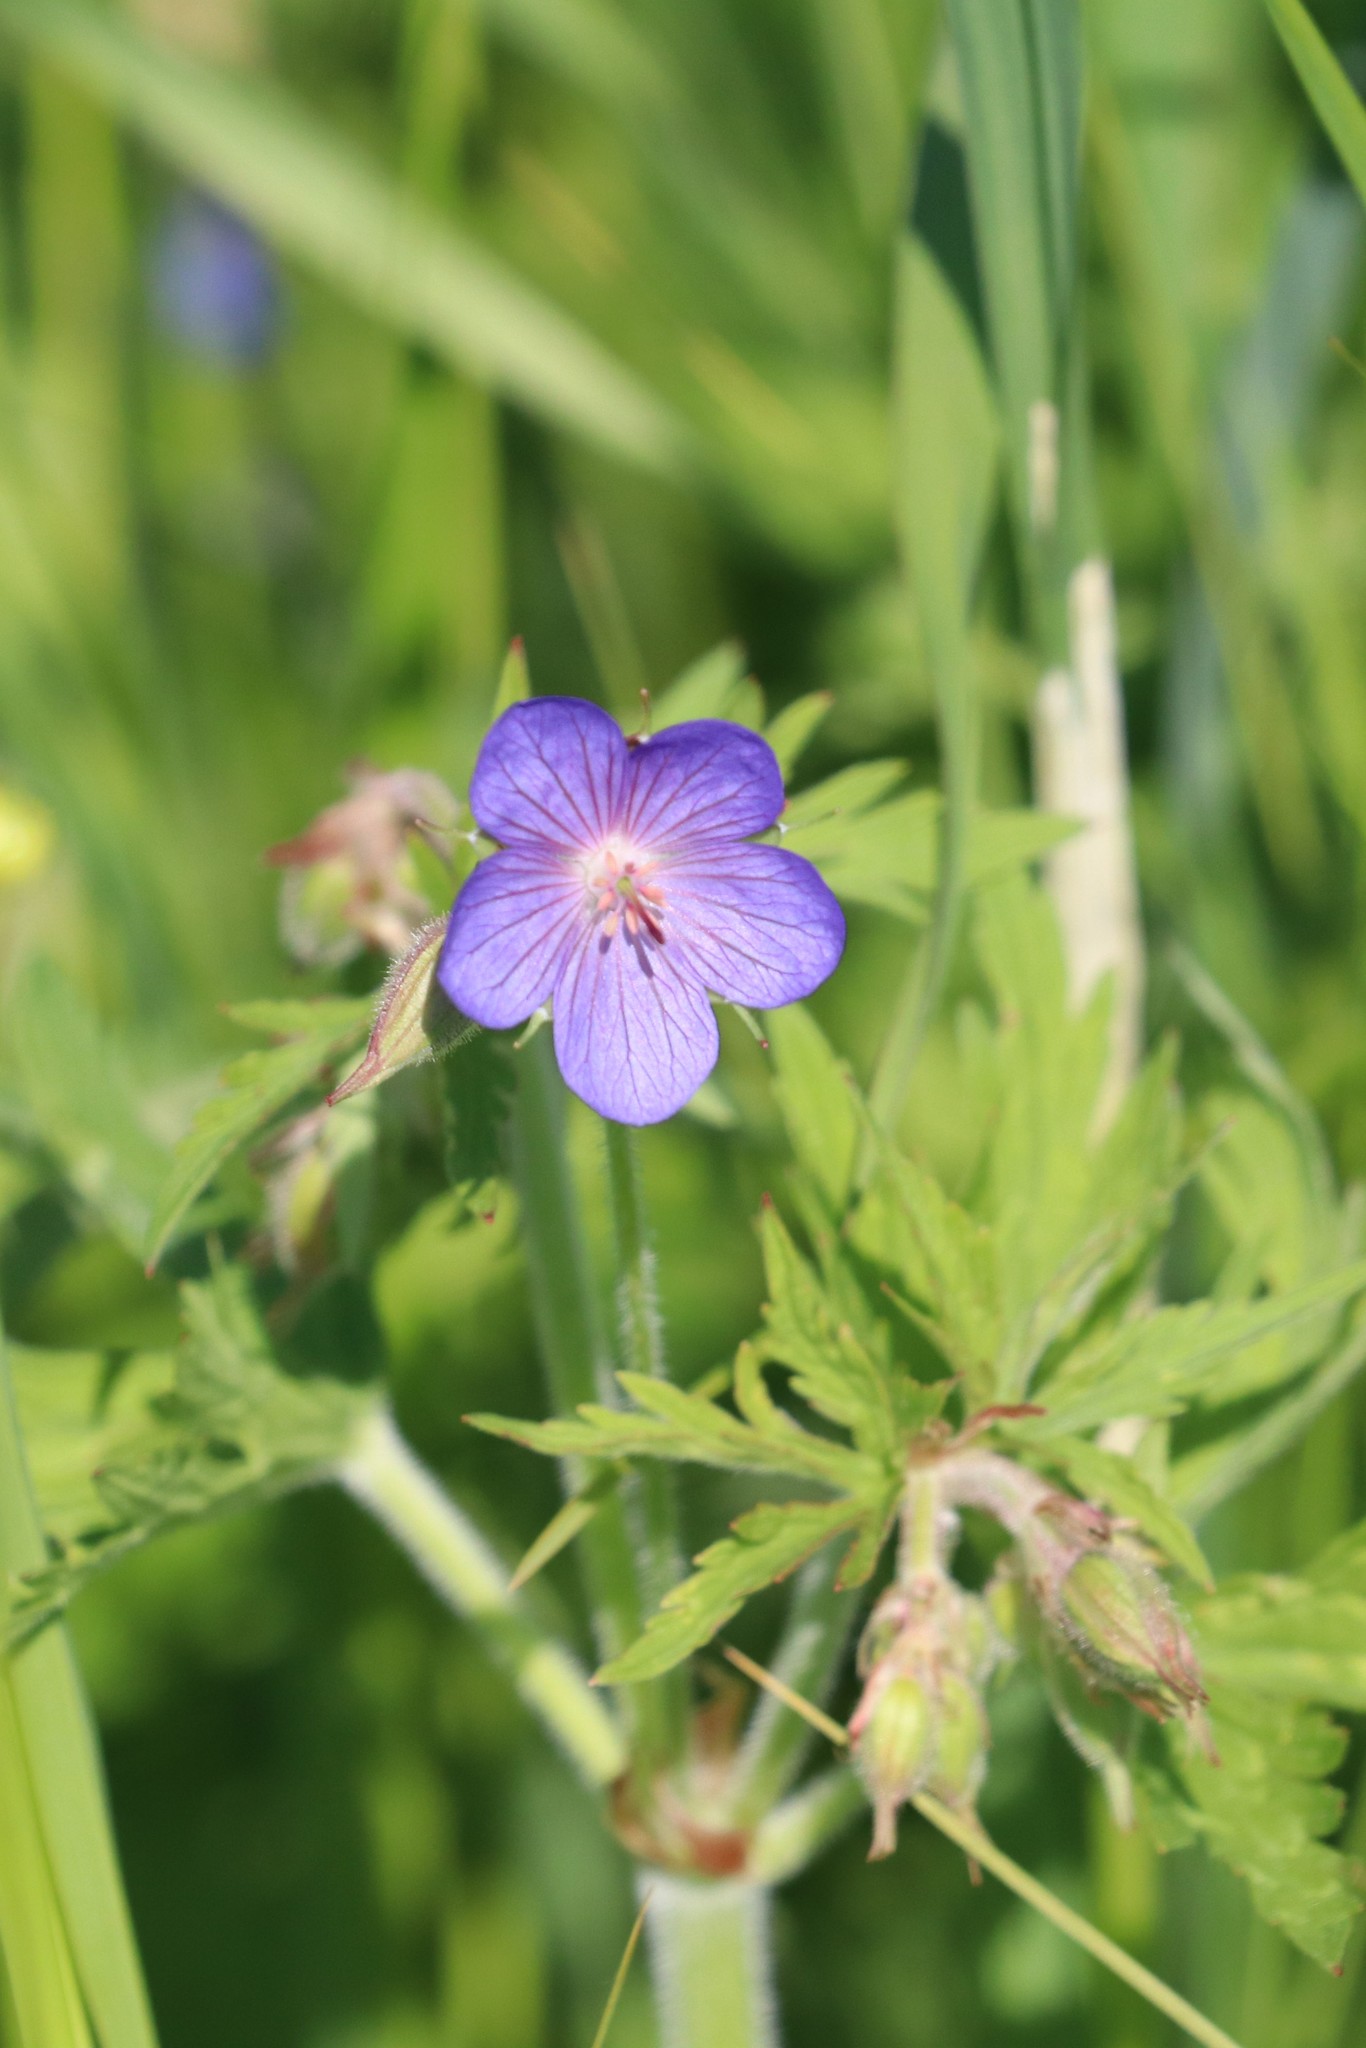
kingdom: Plantae
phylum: Tracheophyta
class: Magnoliopsida
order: Geraniales
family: Geraniaceae
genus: Geranium
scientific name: Geranium pratense
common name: Meadow crane's-bill
